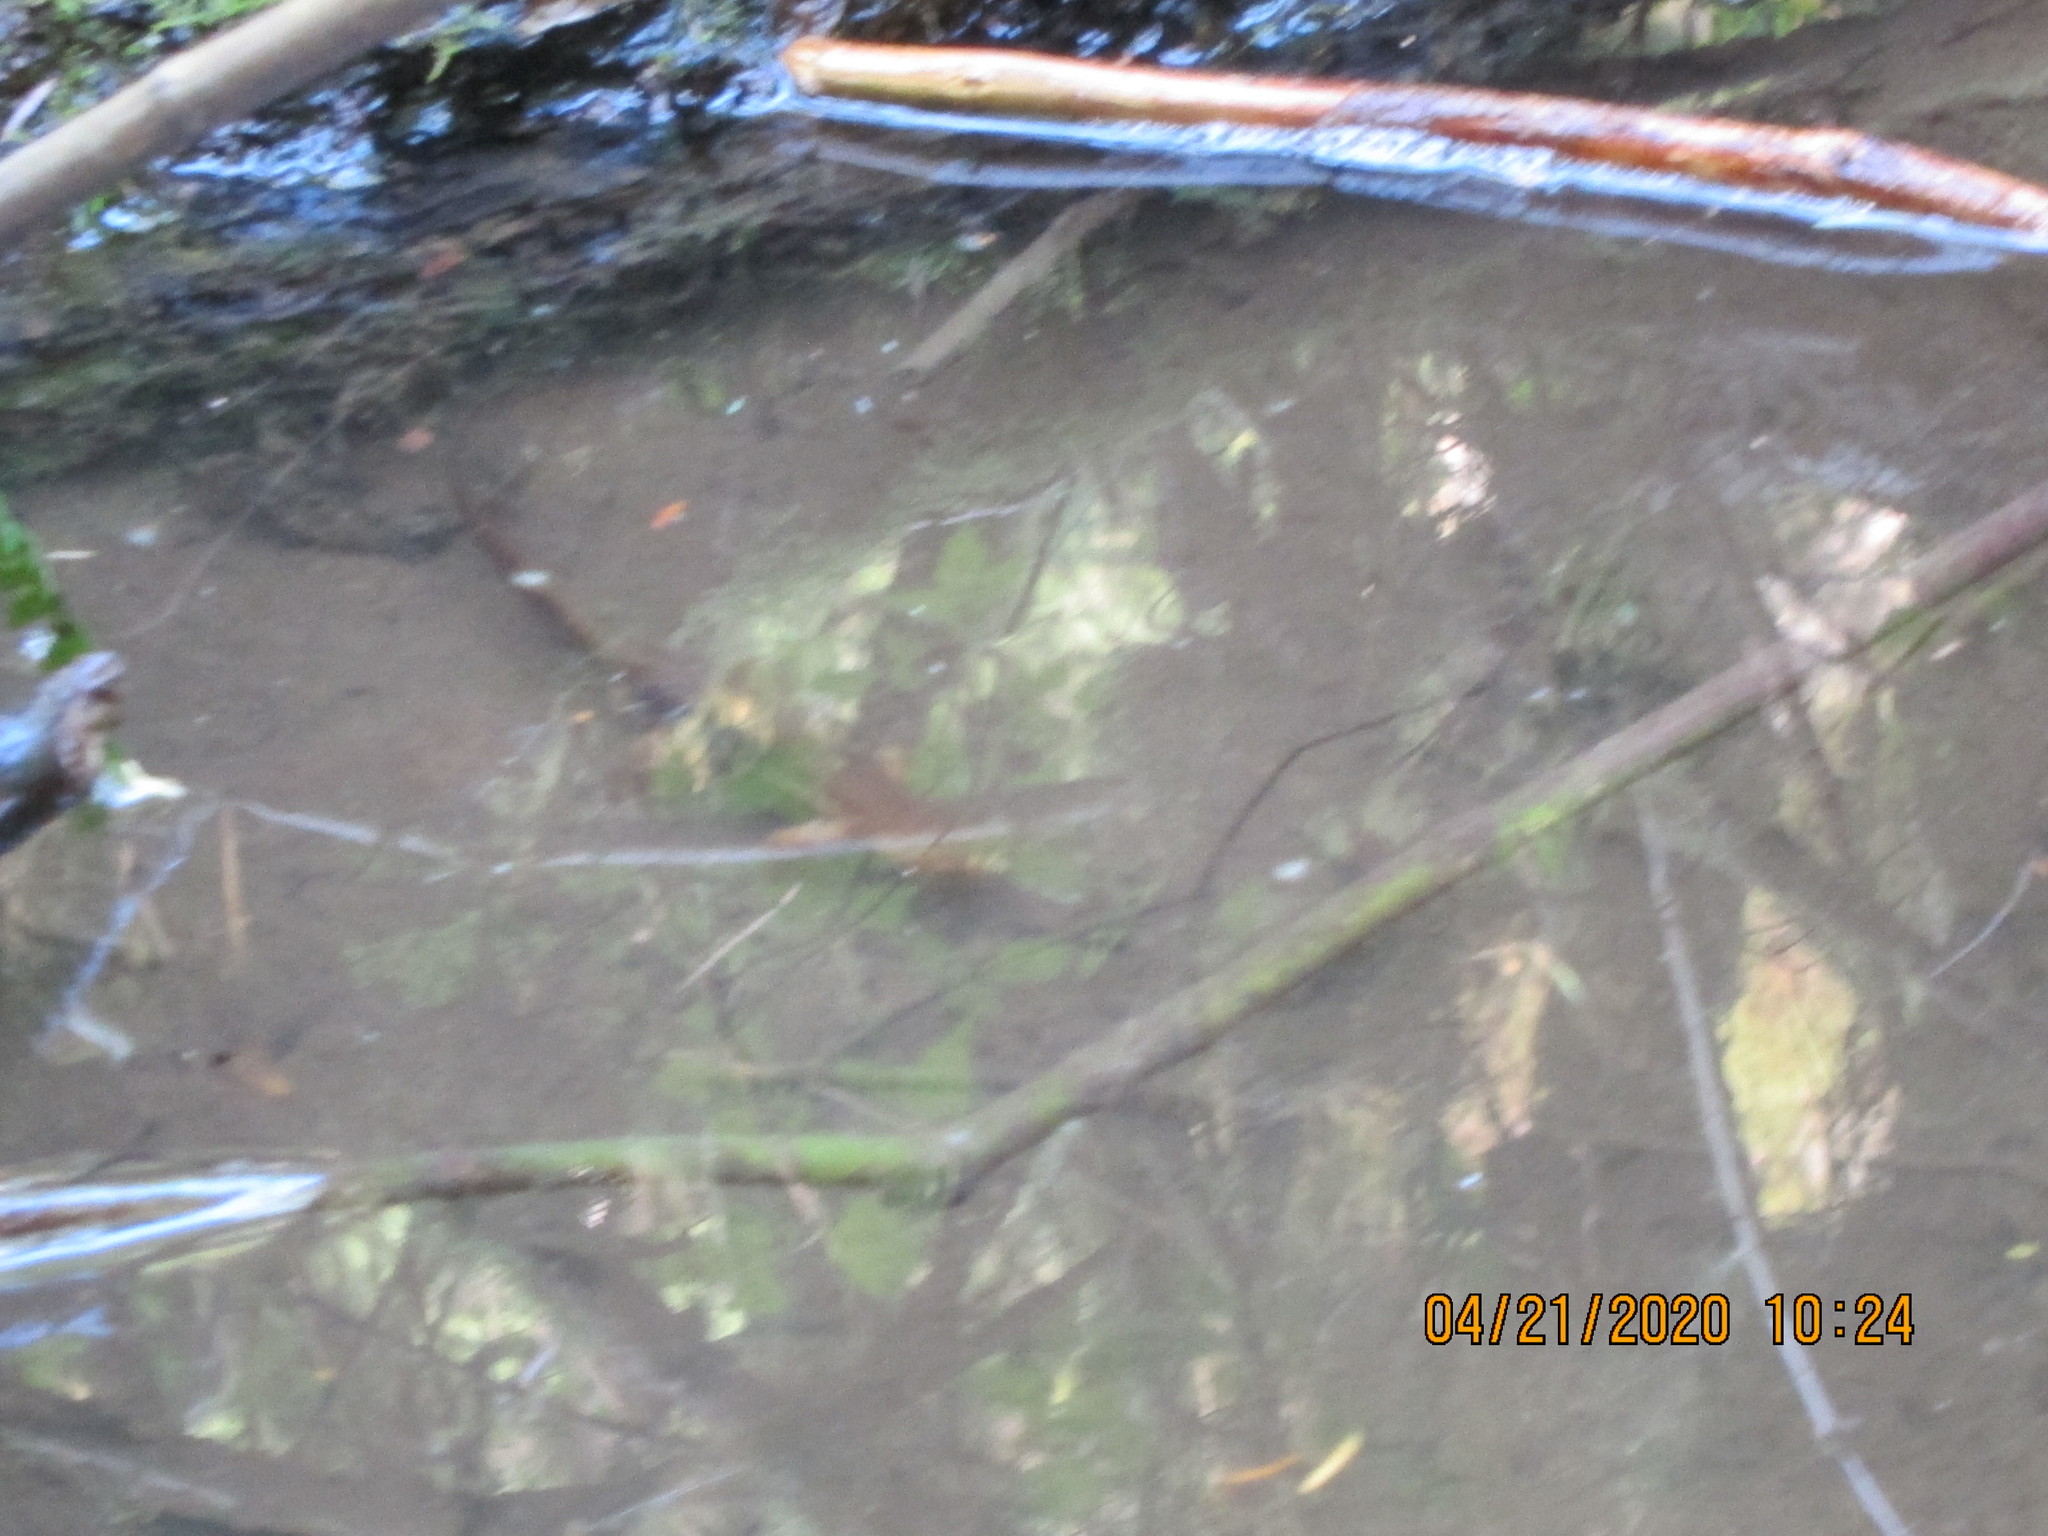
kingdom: Animalia
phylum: Chordata
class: Amphibia
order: Caudata
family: Salamandridae
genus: Taricha
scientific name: Taricha granulosa
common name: Roughskin newt
